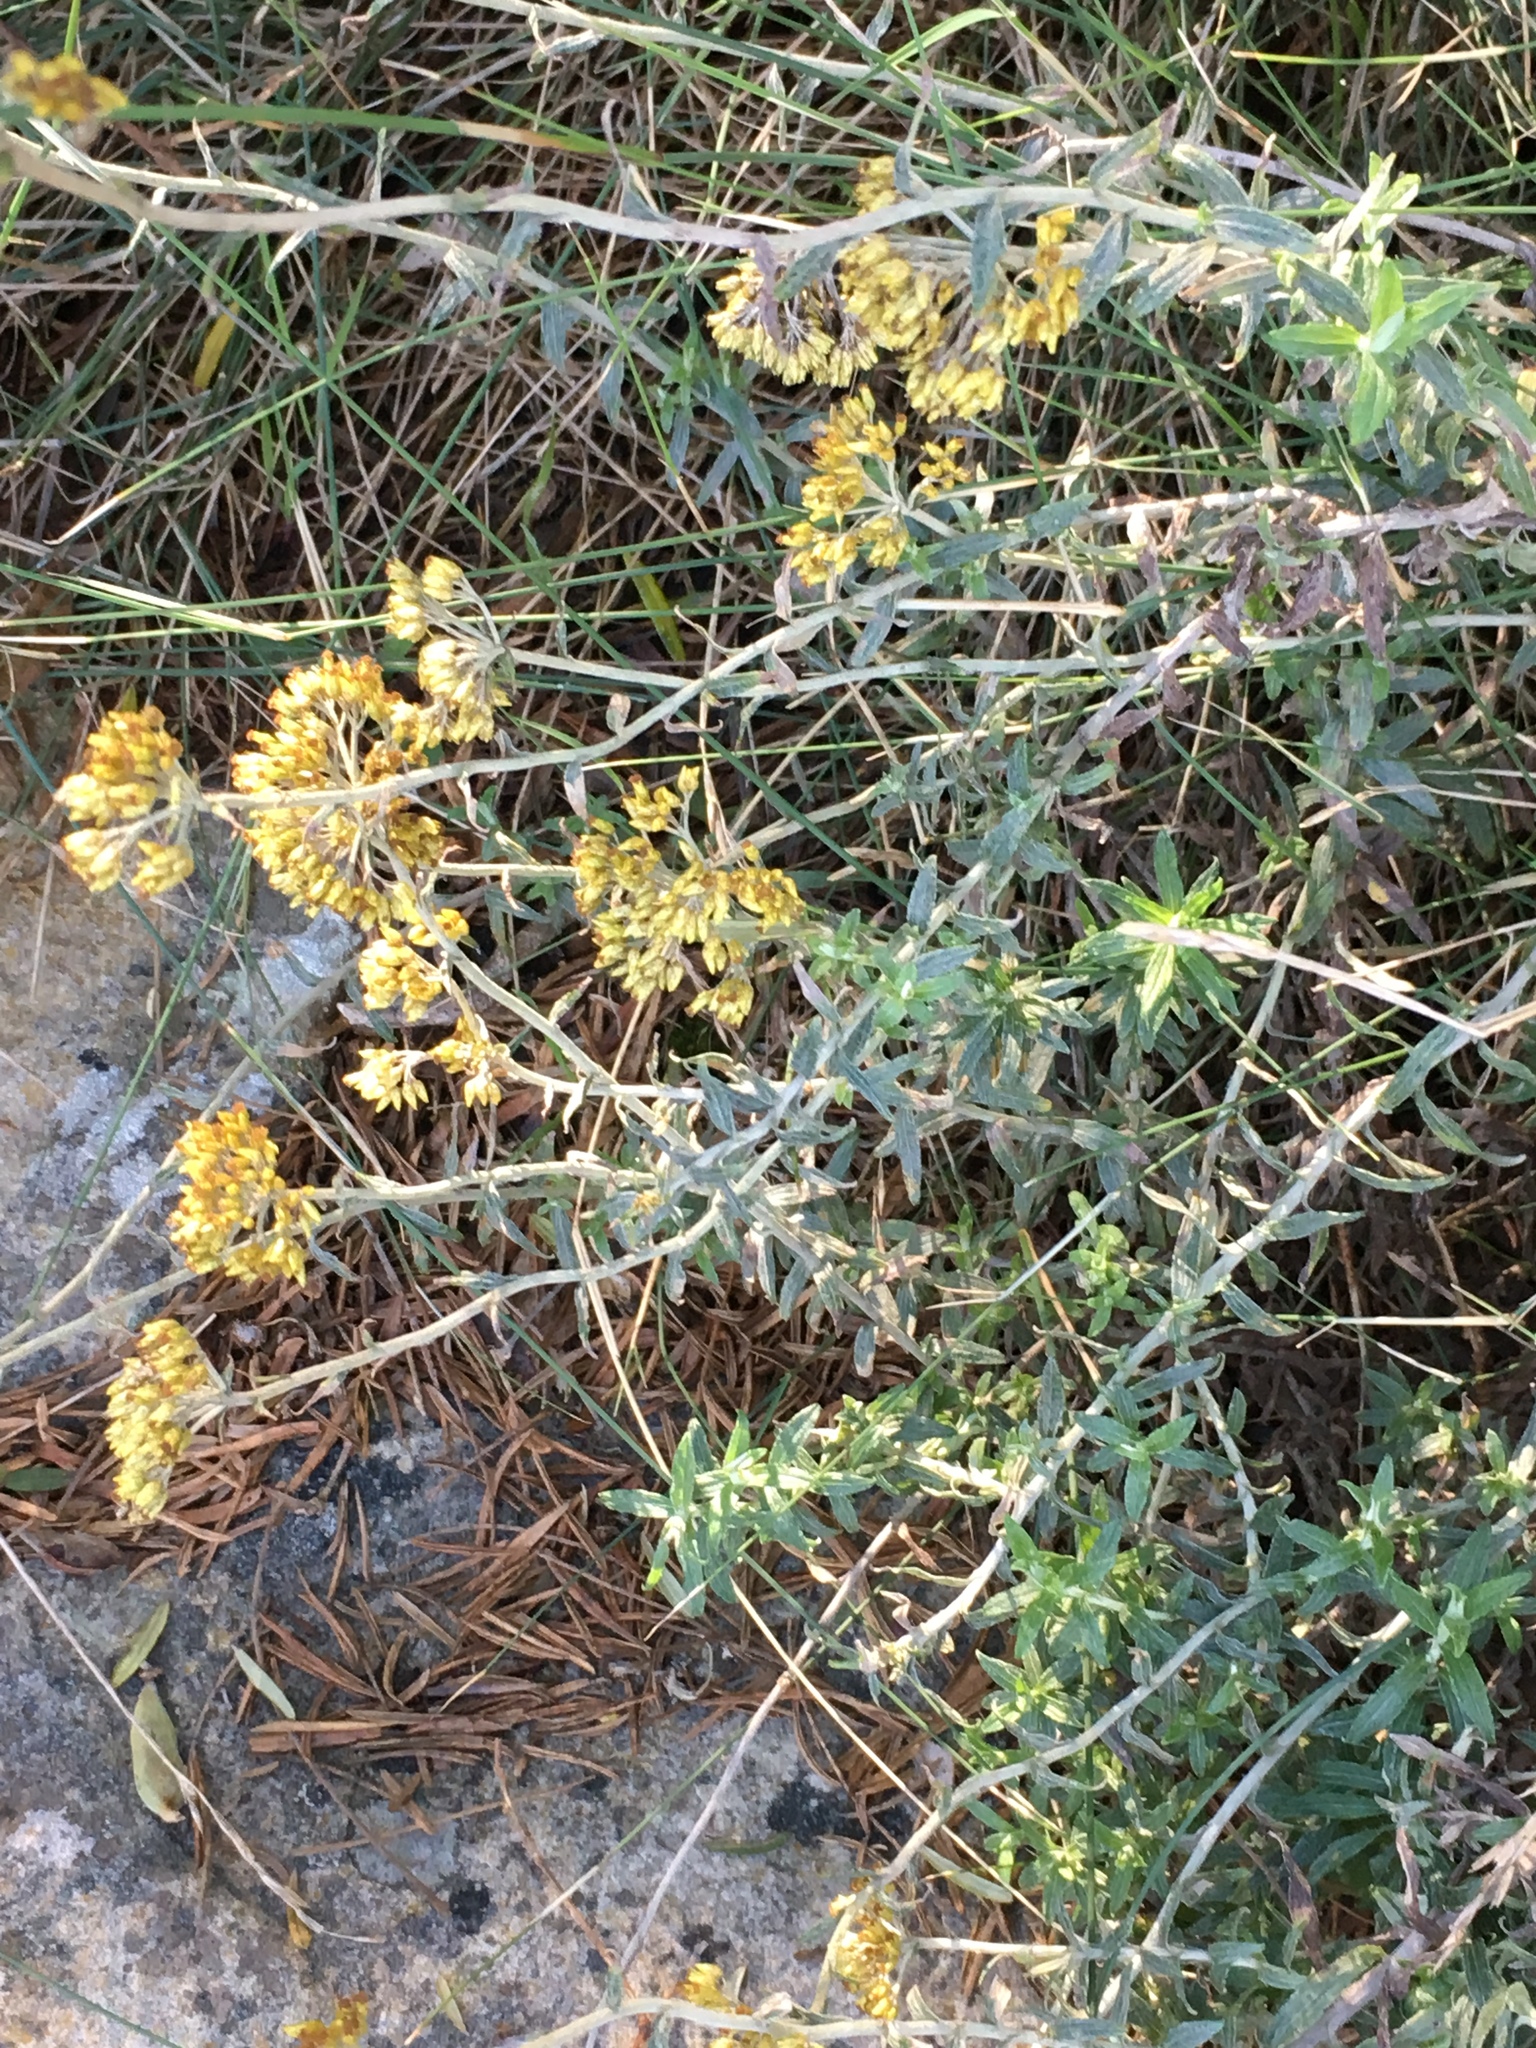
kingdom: Plantae
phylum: Tracheophyta
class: Magnoliopsida
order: Asterales
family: Asteraceae
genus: Helichrysum
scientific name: Helichrysum cymosum
